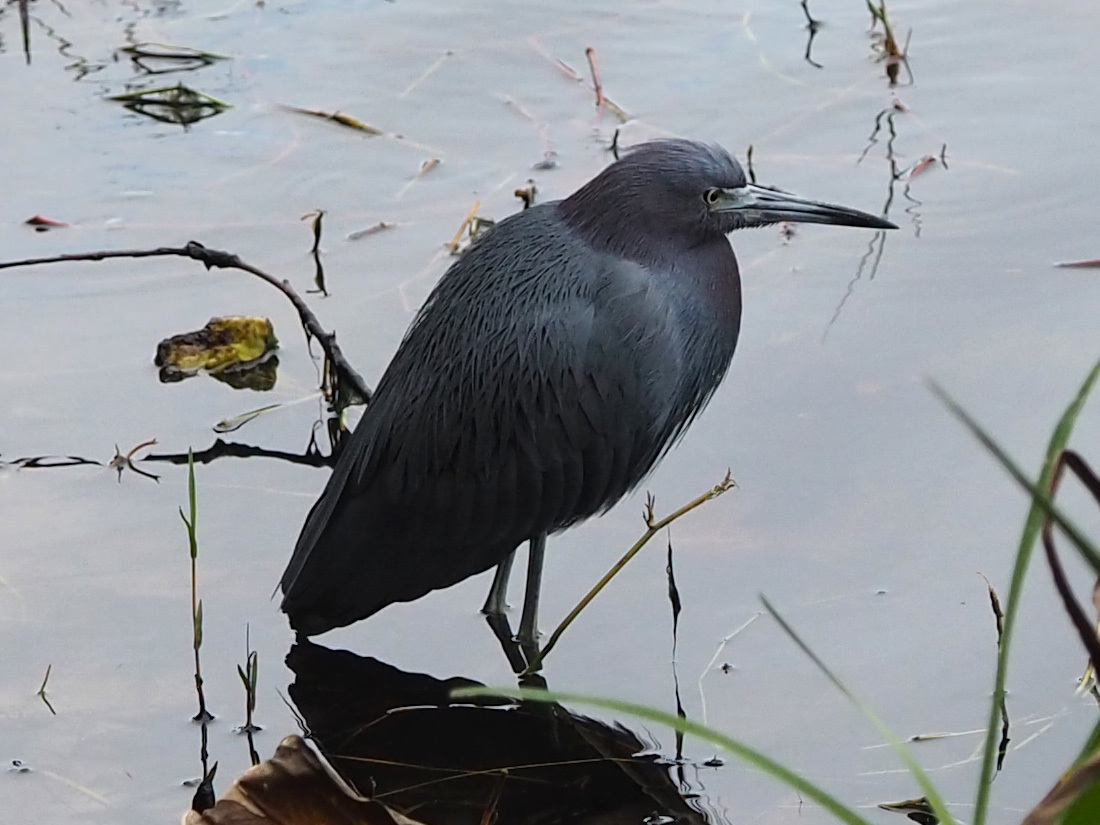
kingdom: Animalia
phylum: Chordata
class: Aves
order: Pelecaniformes
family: Ardeidae
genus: Egretta
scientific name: Egretta caerulea
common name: Little blue heron
